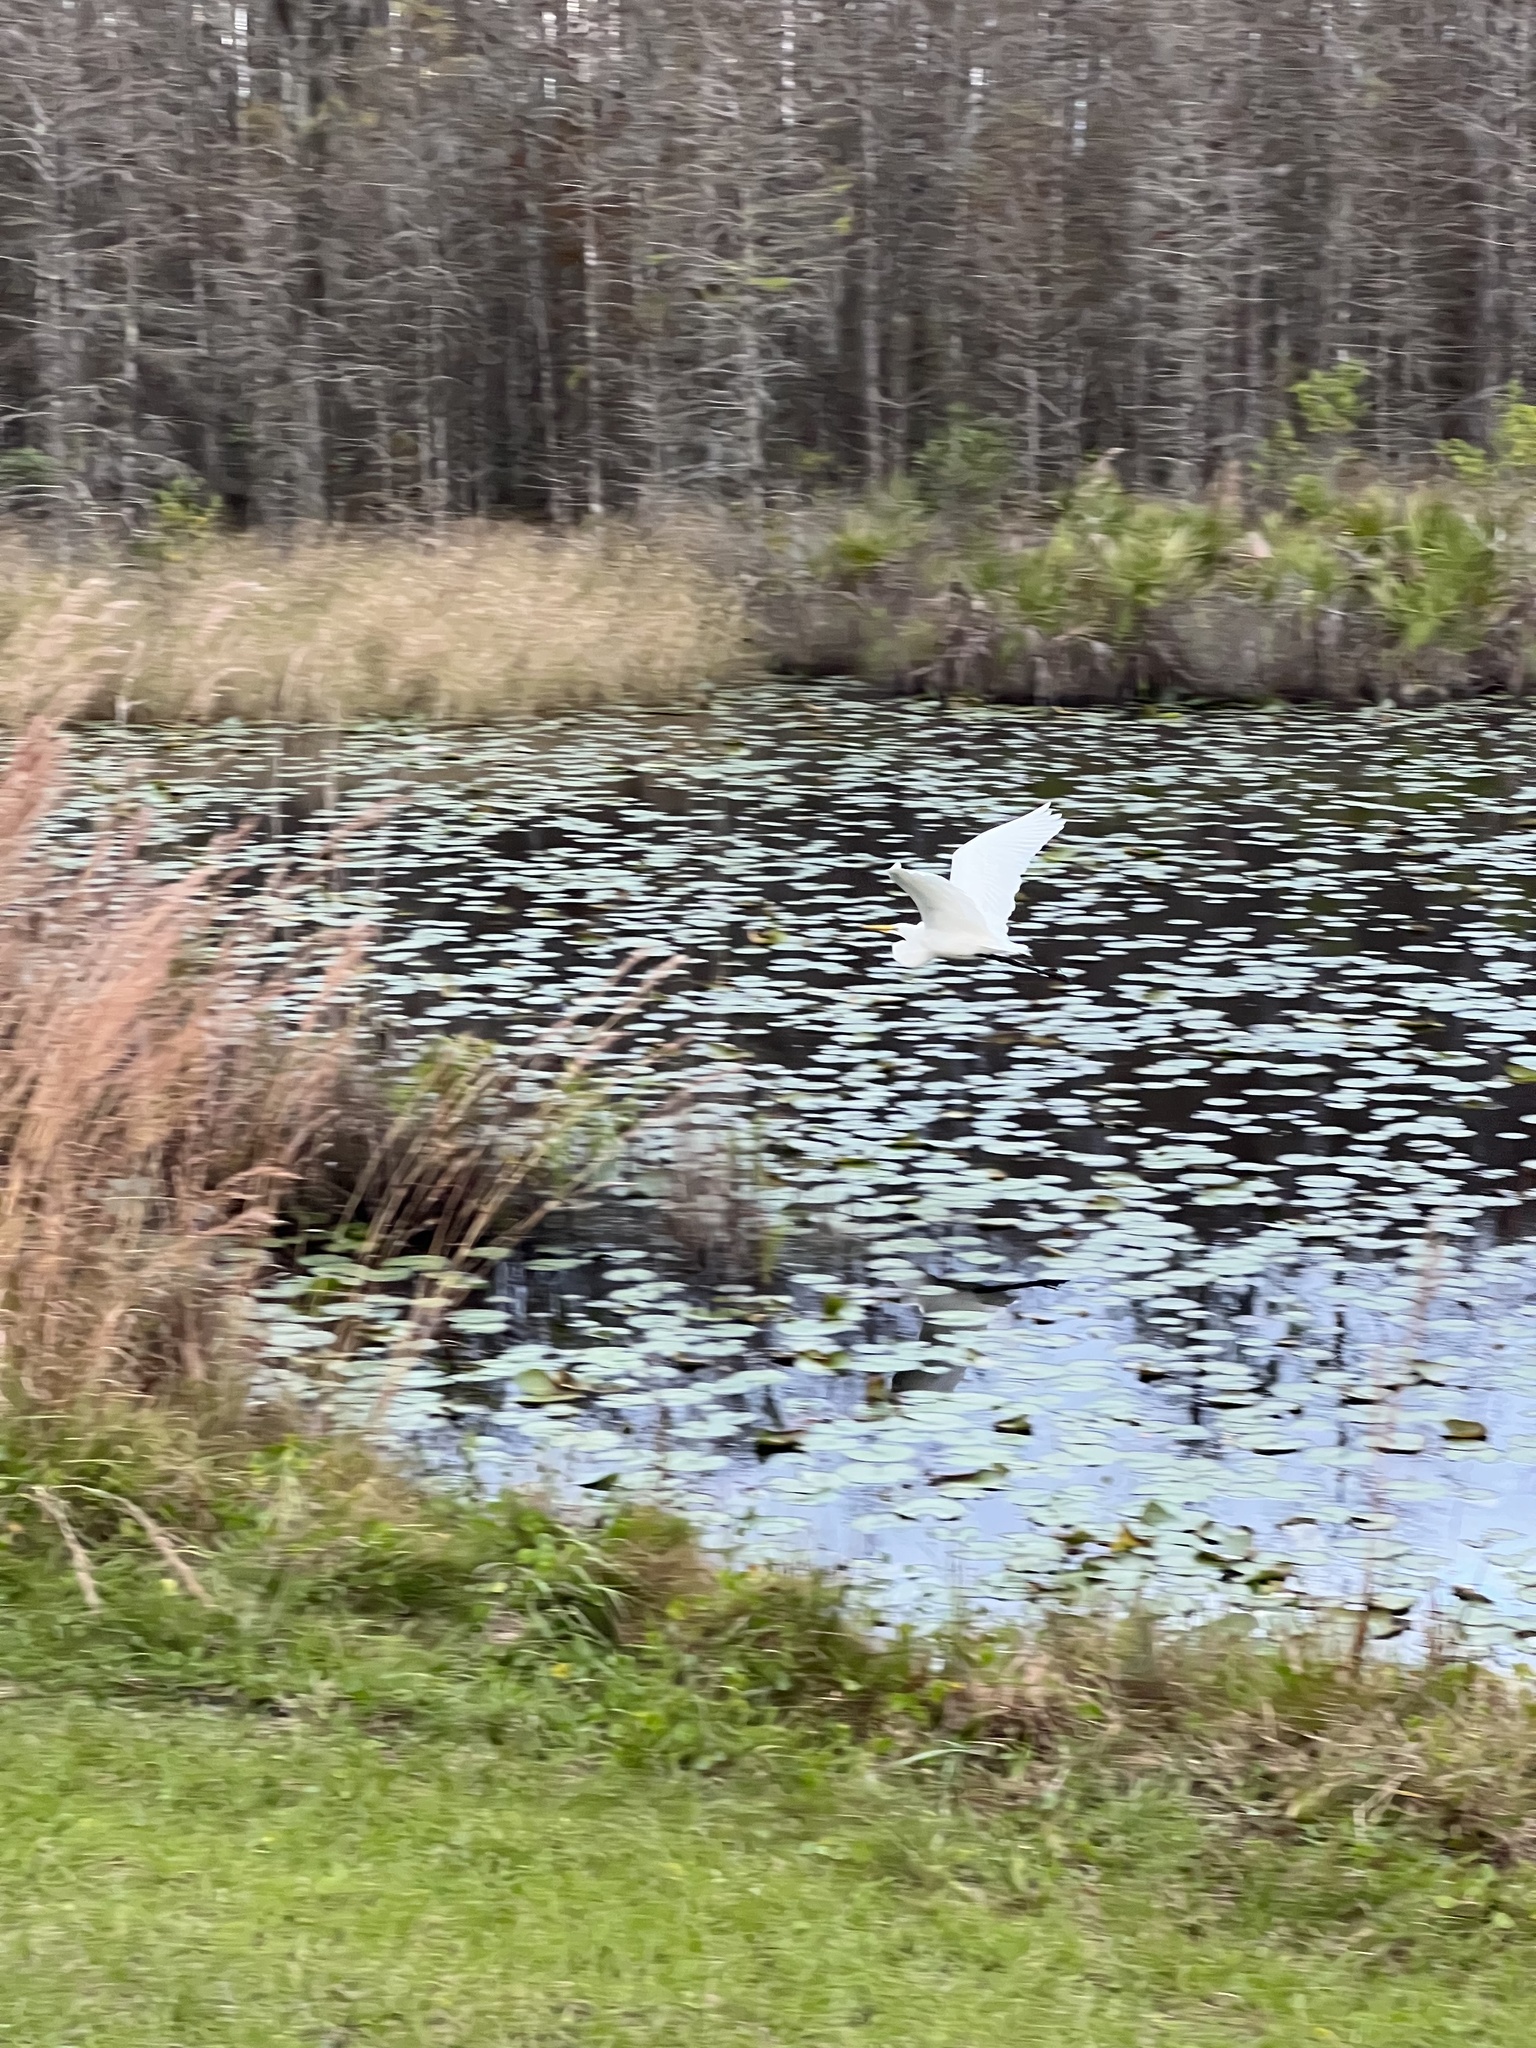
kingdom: Animalia
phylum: Chordata
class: Aves
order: Pelecaniformes
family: Ardeidae
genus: Ardea
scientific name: Ardea alba
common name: Great egret
